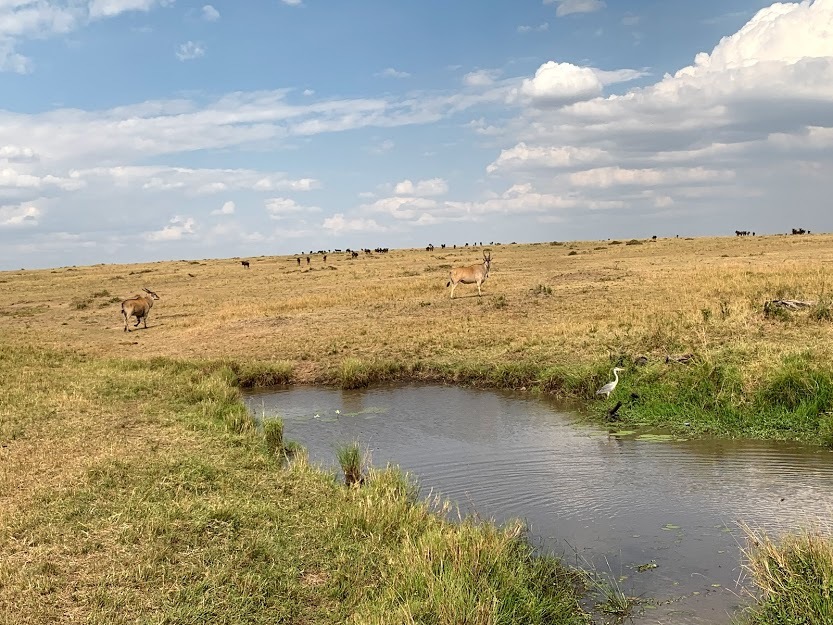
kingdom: Animalia
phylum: Chordata
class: Aves
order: Pelecaniformes
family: Ardeidae
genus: Ardea
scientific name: Ardea cinerea
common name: Grey heron
